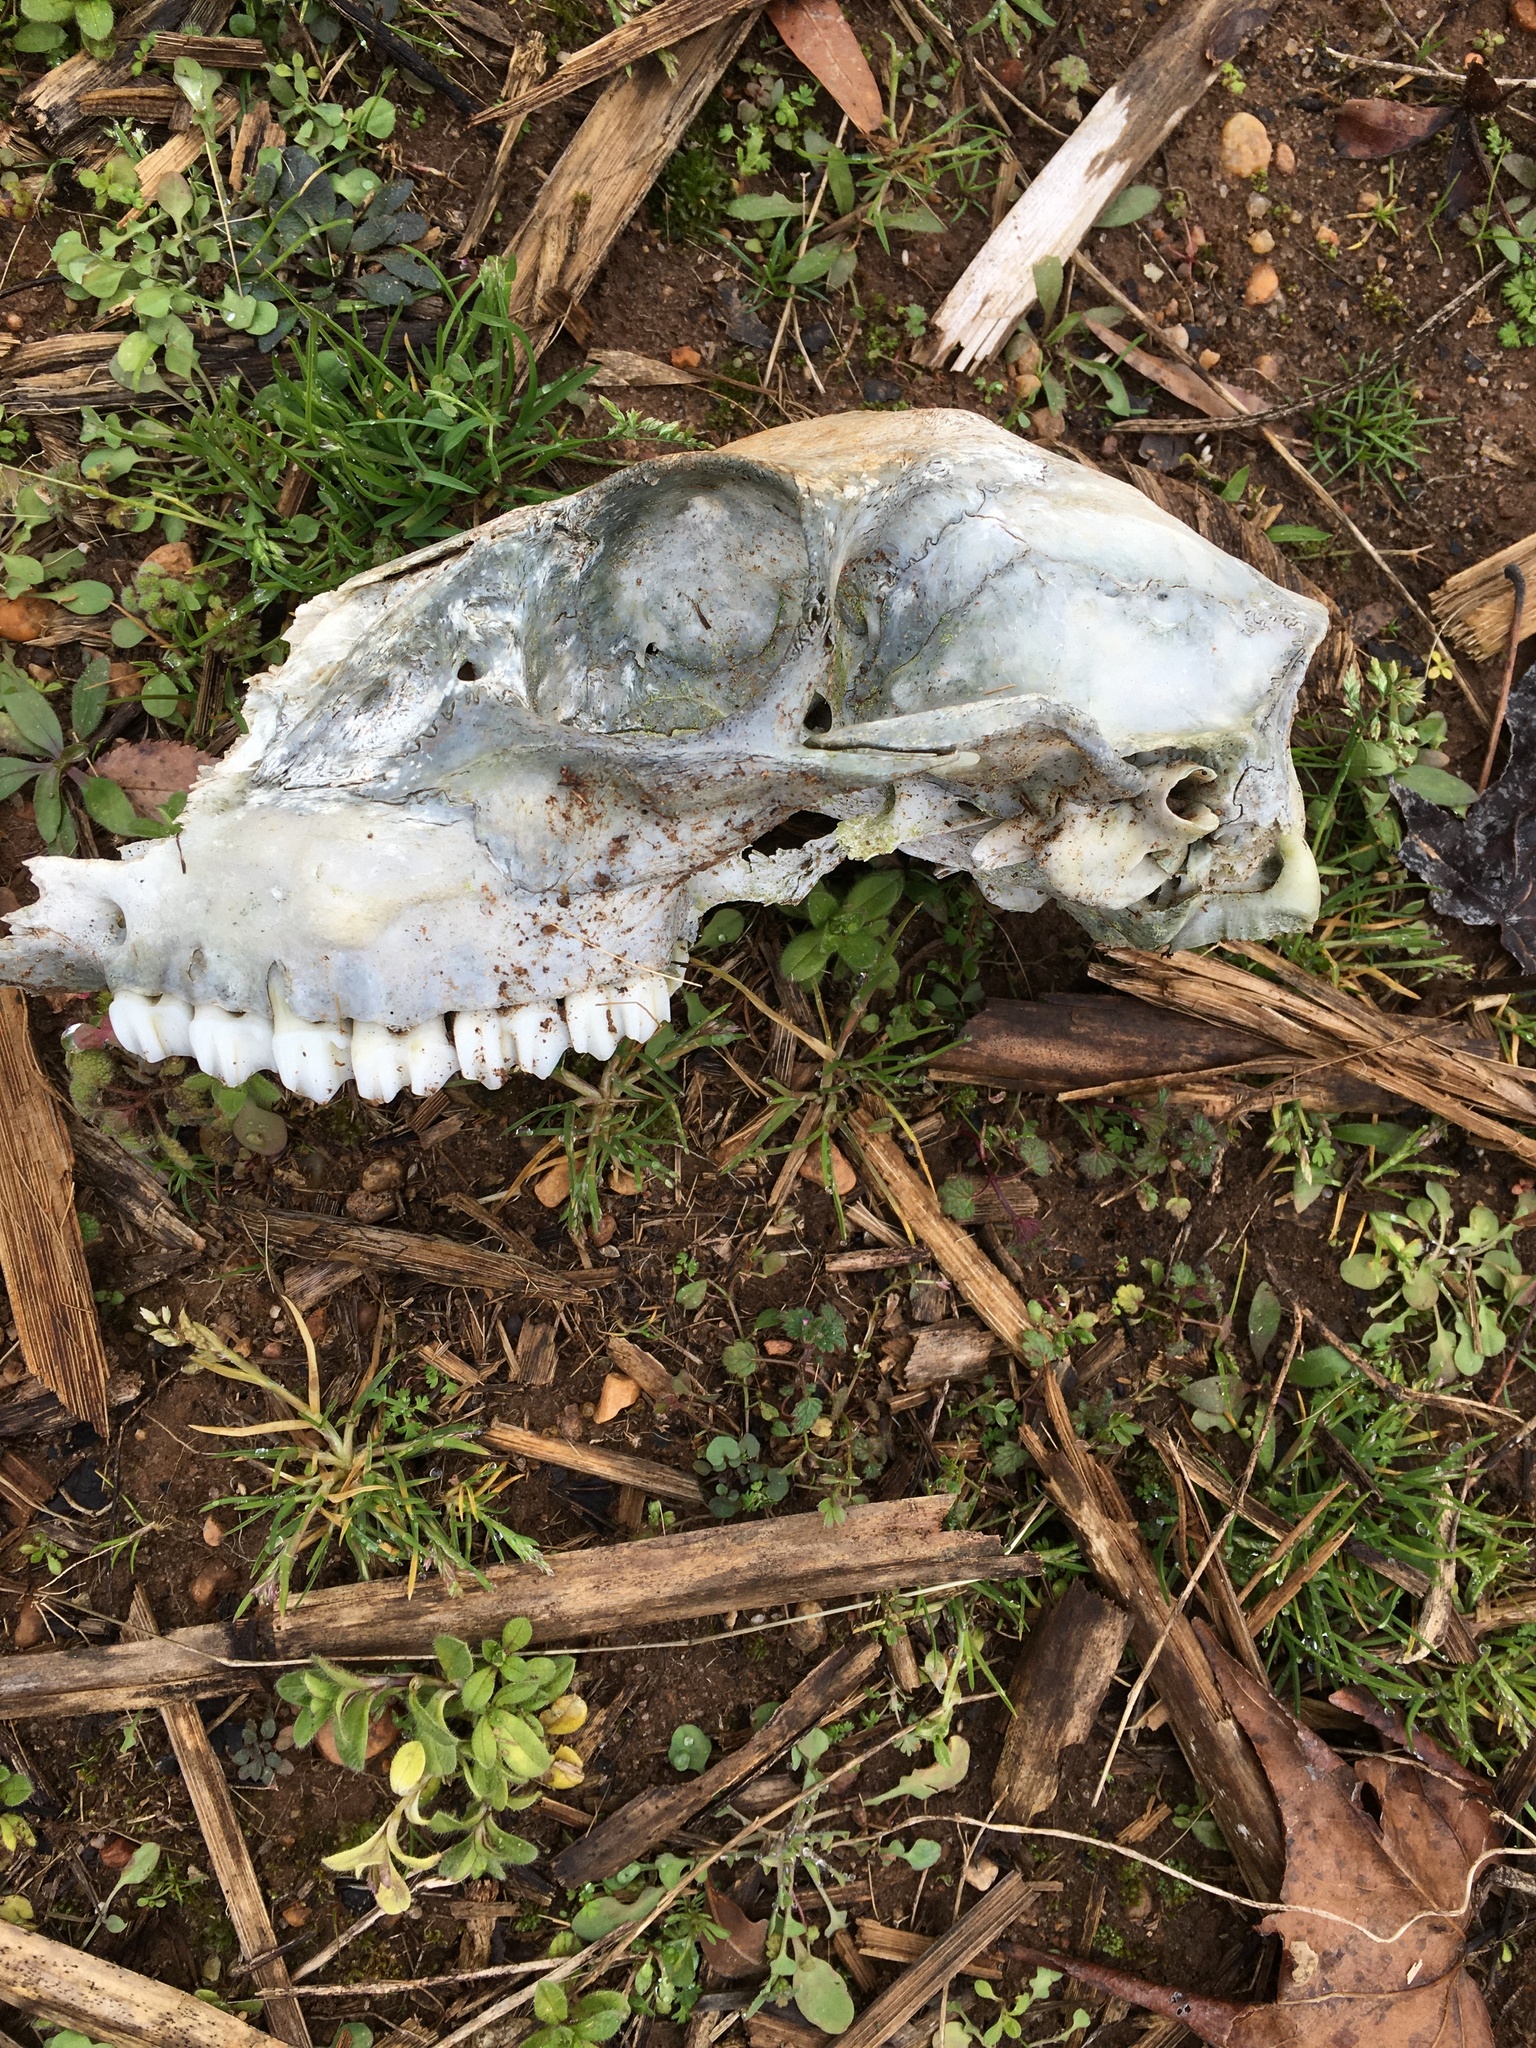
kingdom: Animalia
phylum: Chordata
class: Mammalia
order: Artiodactyla
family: Cervidae
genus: Odocoileus
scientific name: Odocoileus virginianus
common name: White-tailed deer
